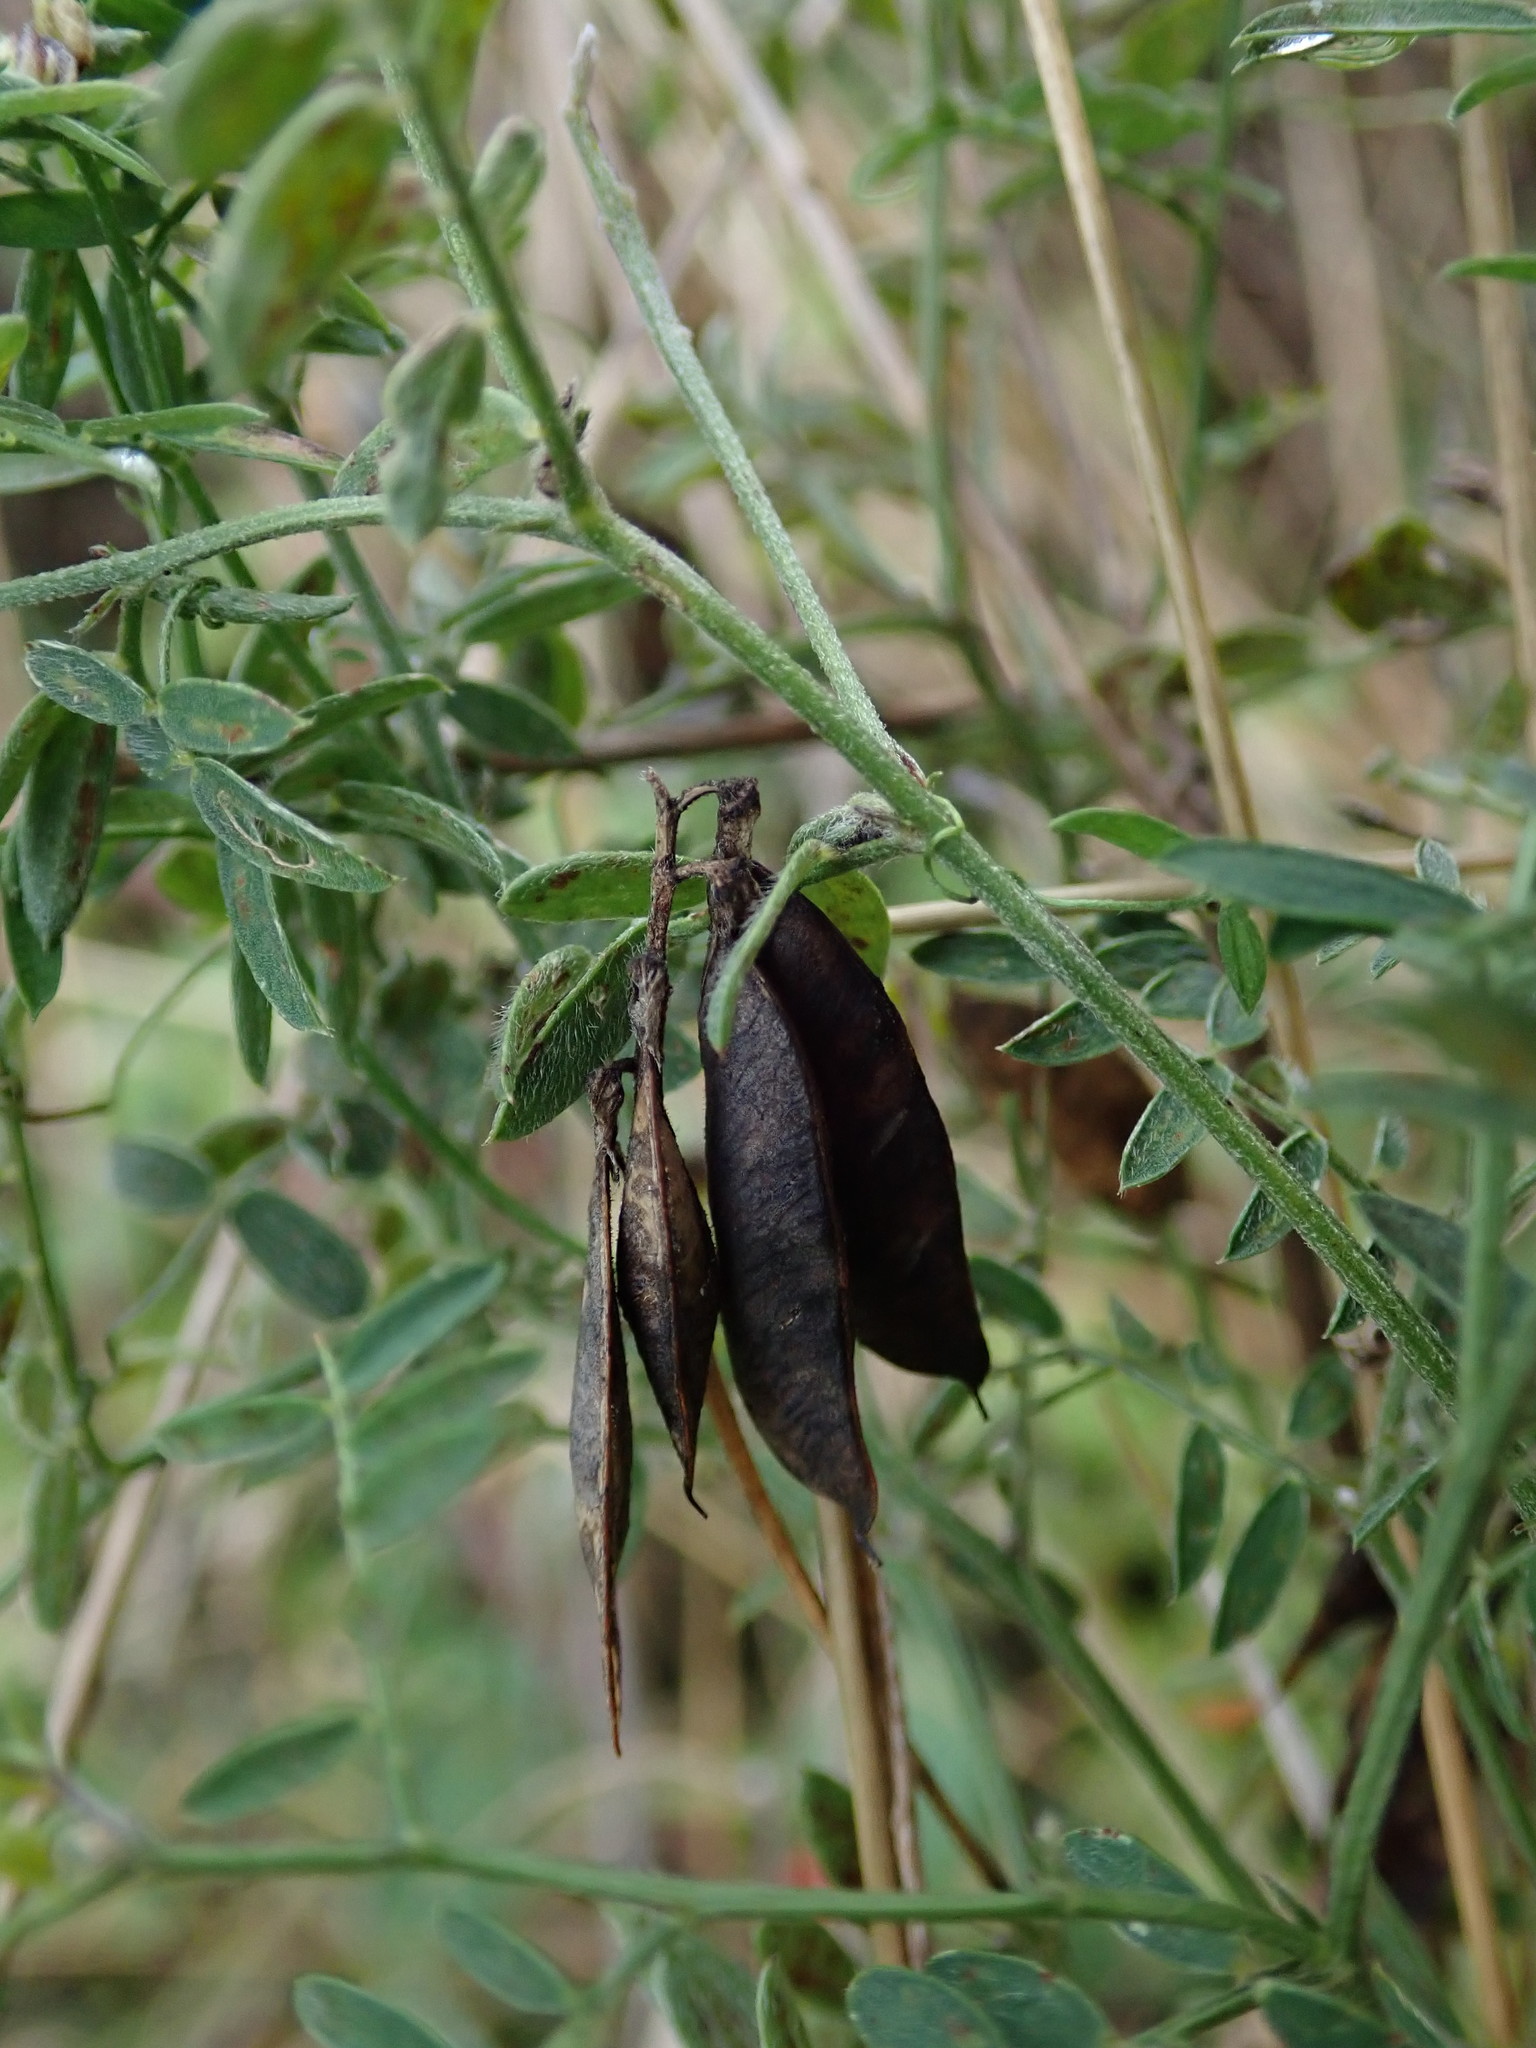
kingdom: Plantae
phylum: Tracheophyta
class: Magnoliopsida
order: Fabales
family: Fabaceae
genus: Vicia
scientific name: Vicia cracca
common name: Bird vetch
